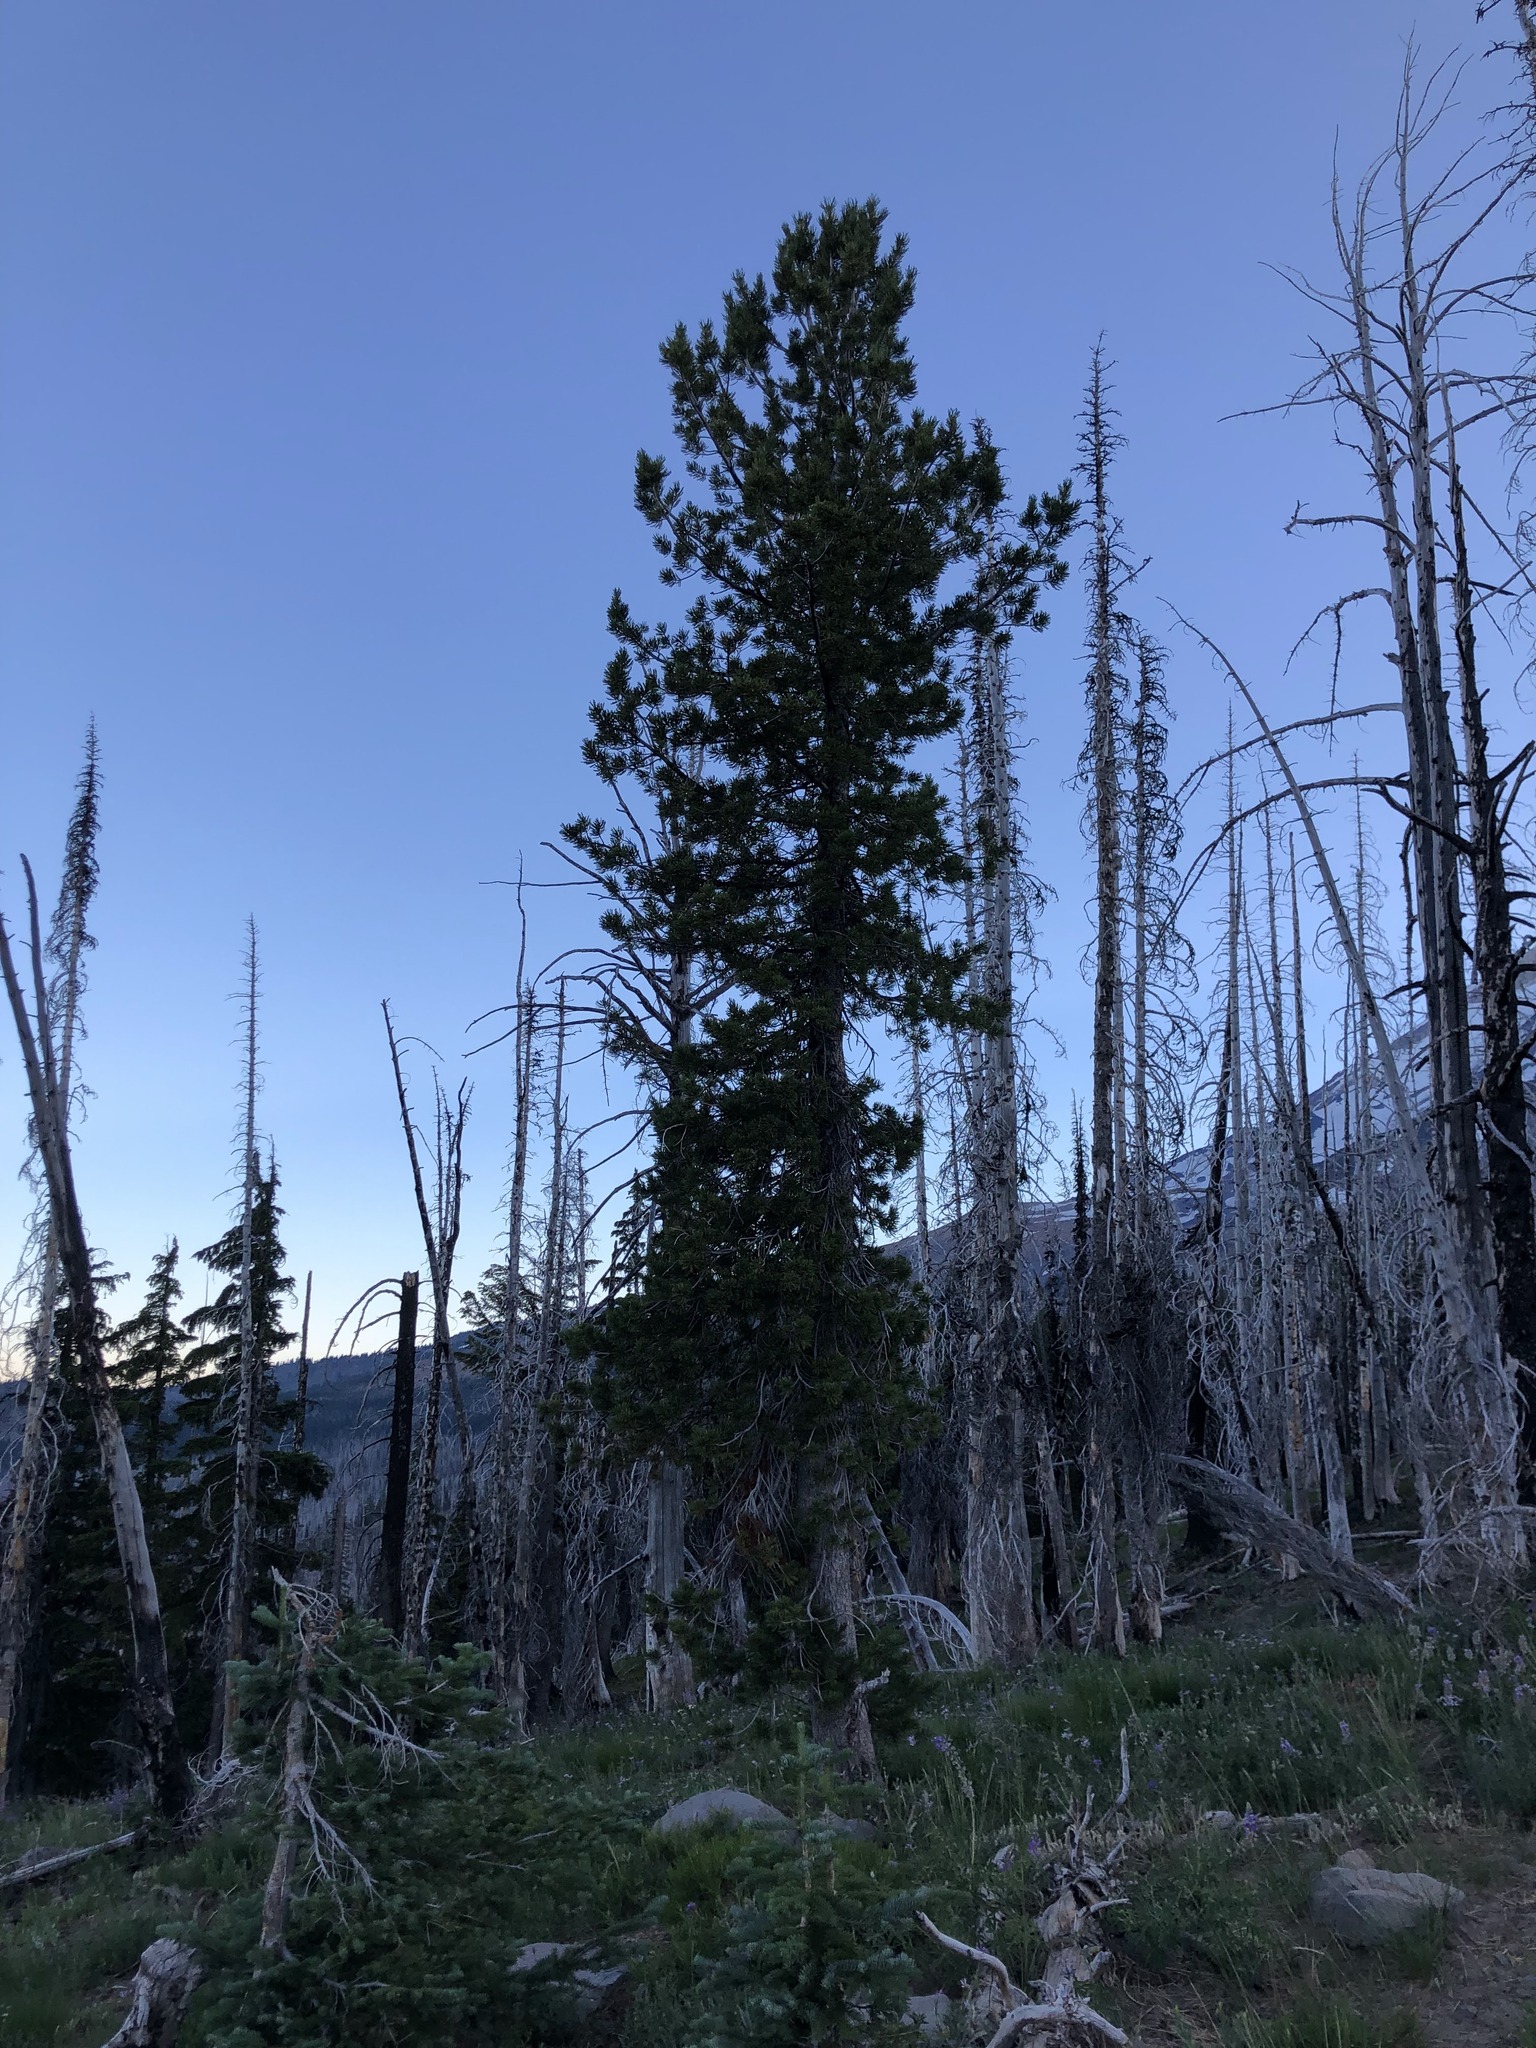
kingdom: Plantae
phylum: Tracheophyta
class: Pinopsida
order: Pinales
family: Pinaceae
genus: Pinus
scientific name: Pinus albicaulis
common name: Whitebark pine
